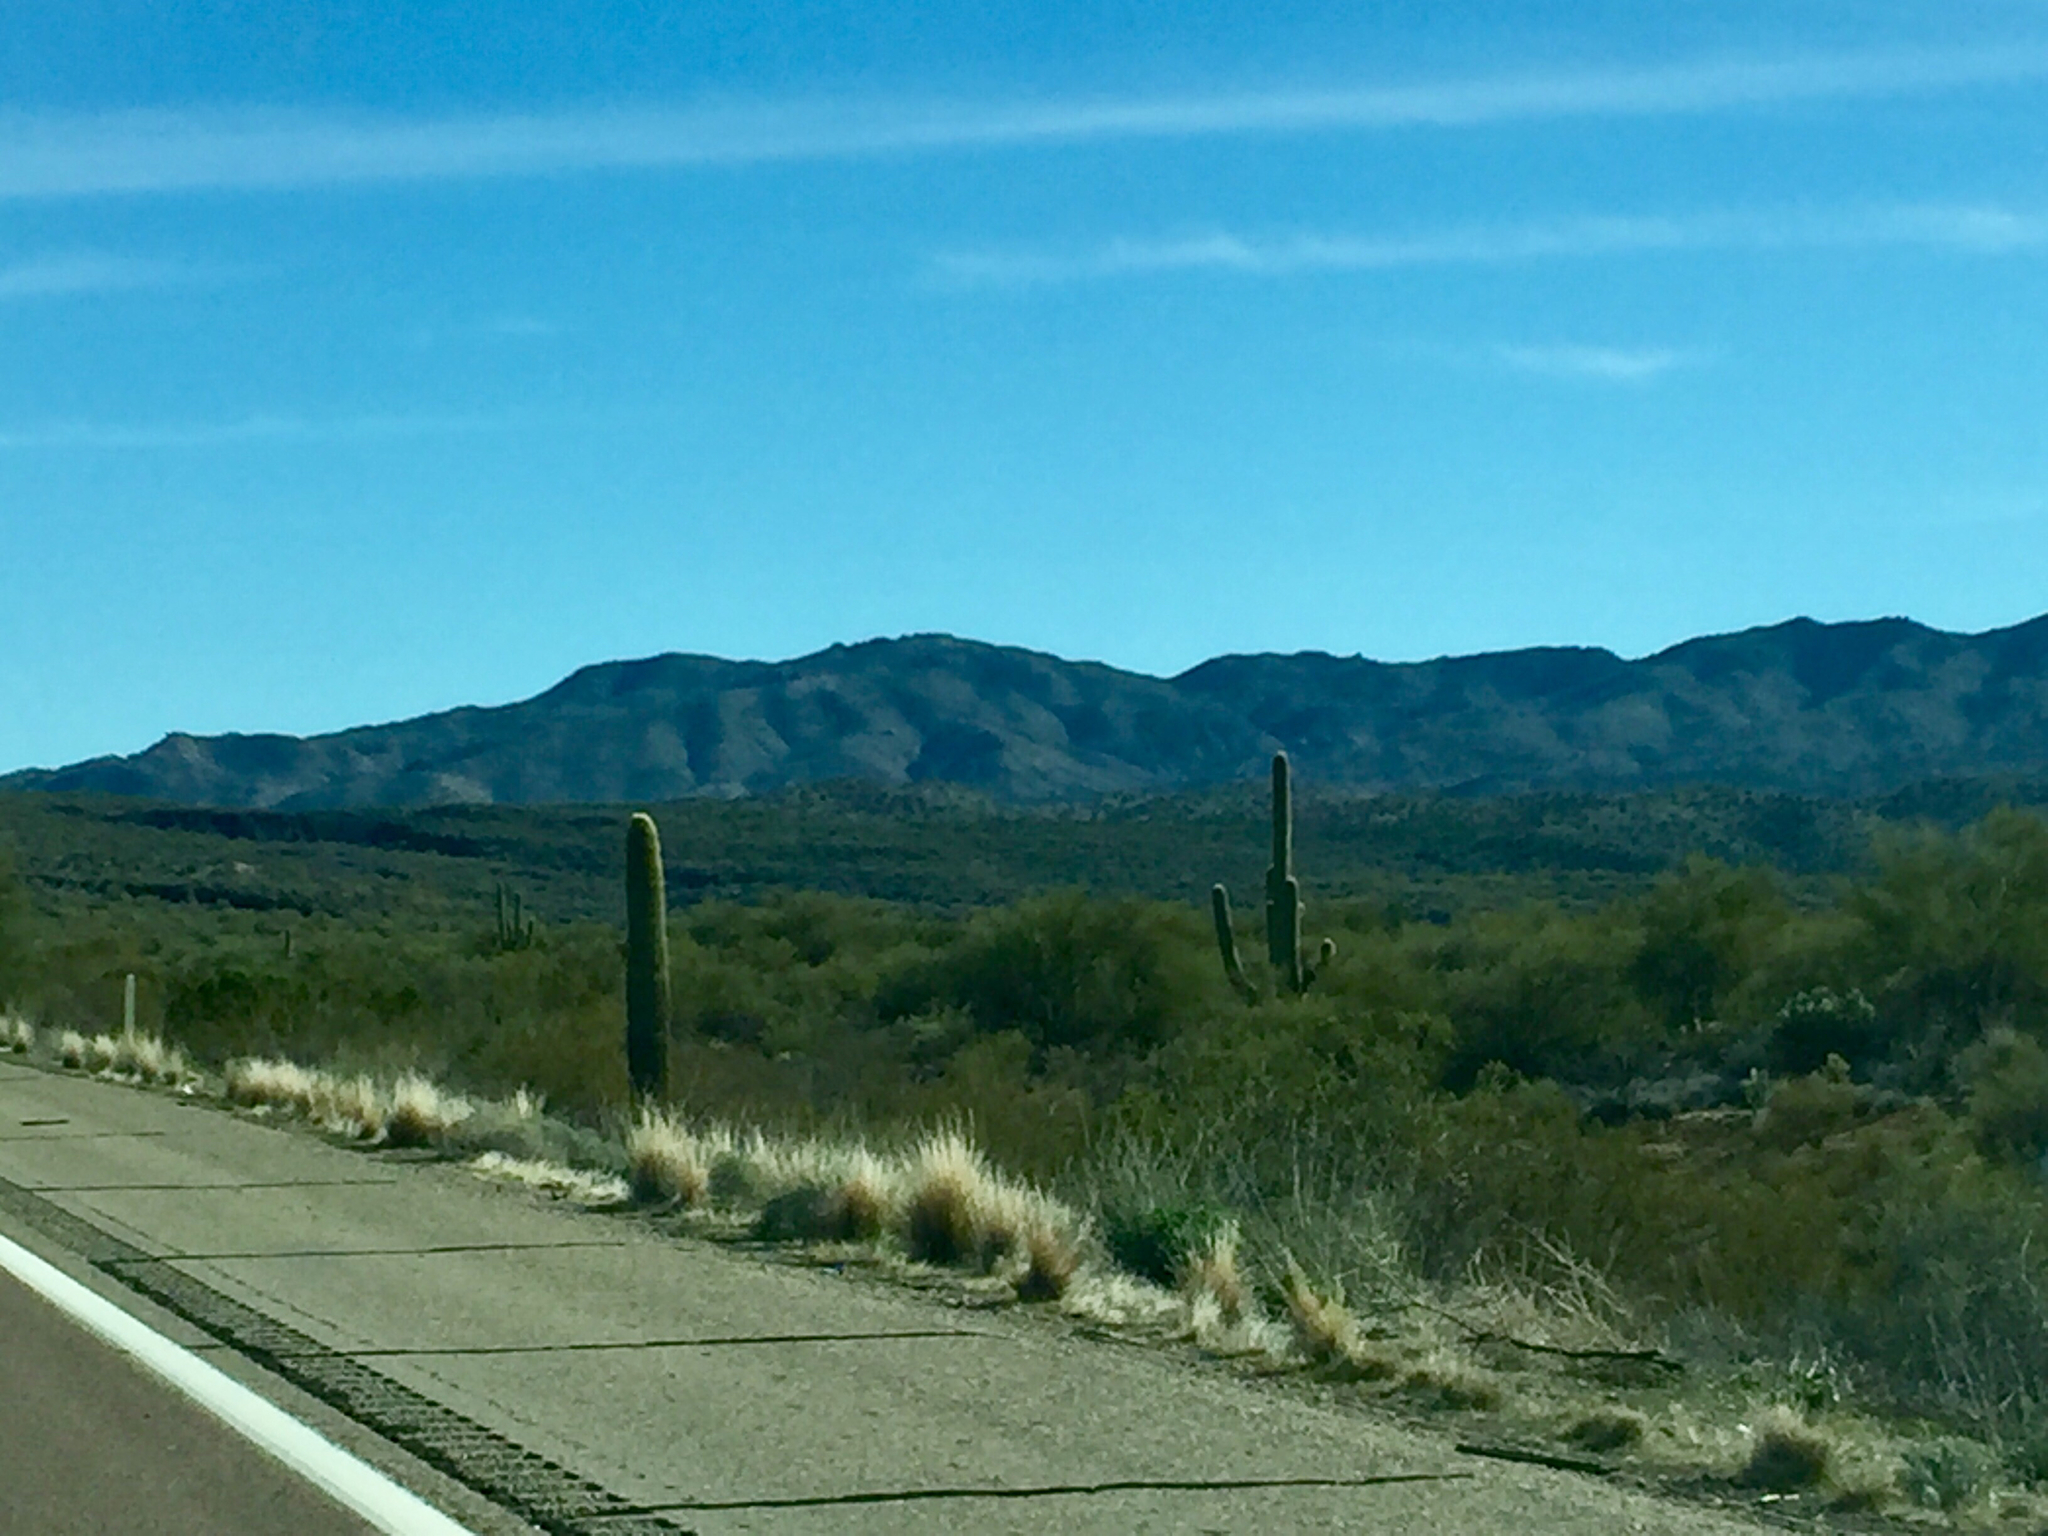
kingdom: Plantae
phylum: Tracheophyta
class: Magnoliopsida
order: Caryophyllales
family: Cactaceae
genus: Carnegiea
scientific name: Carnegiea gigantea
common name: Saguaro
